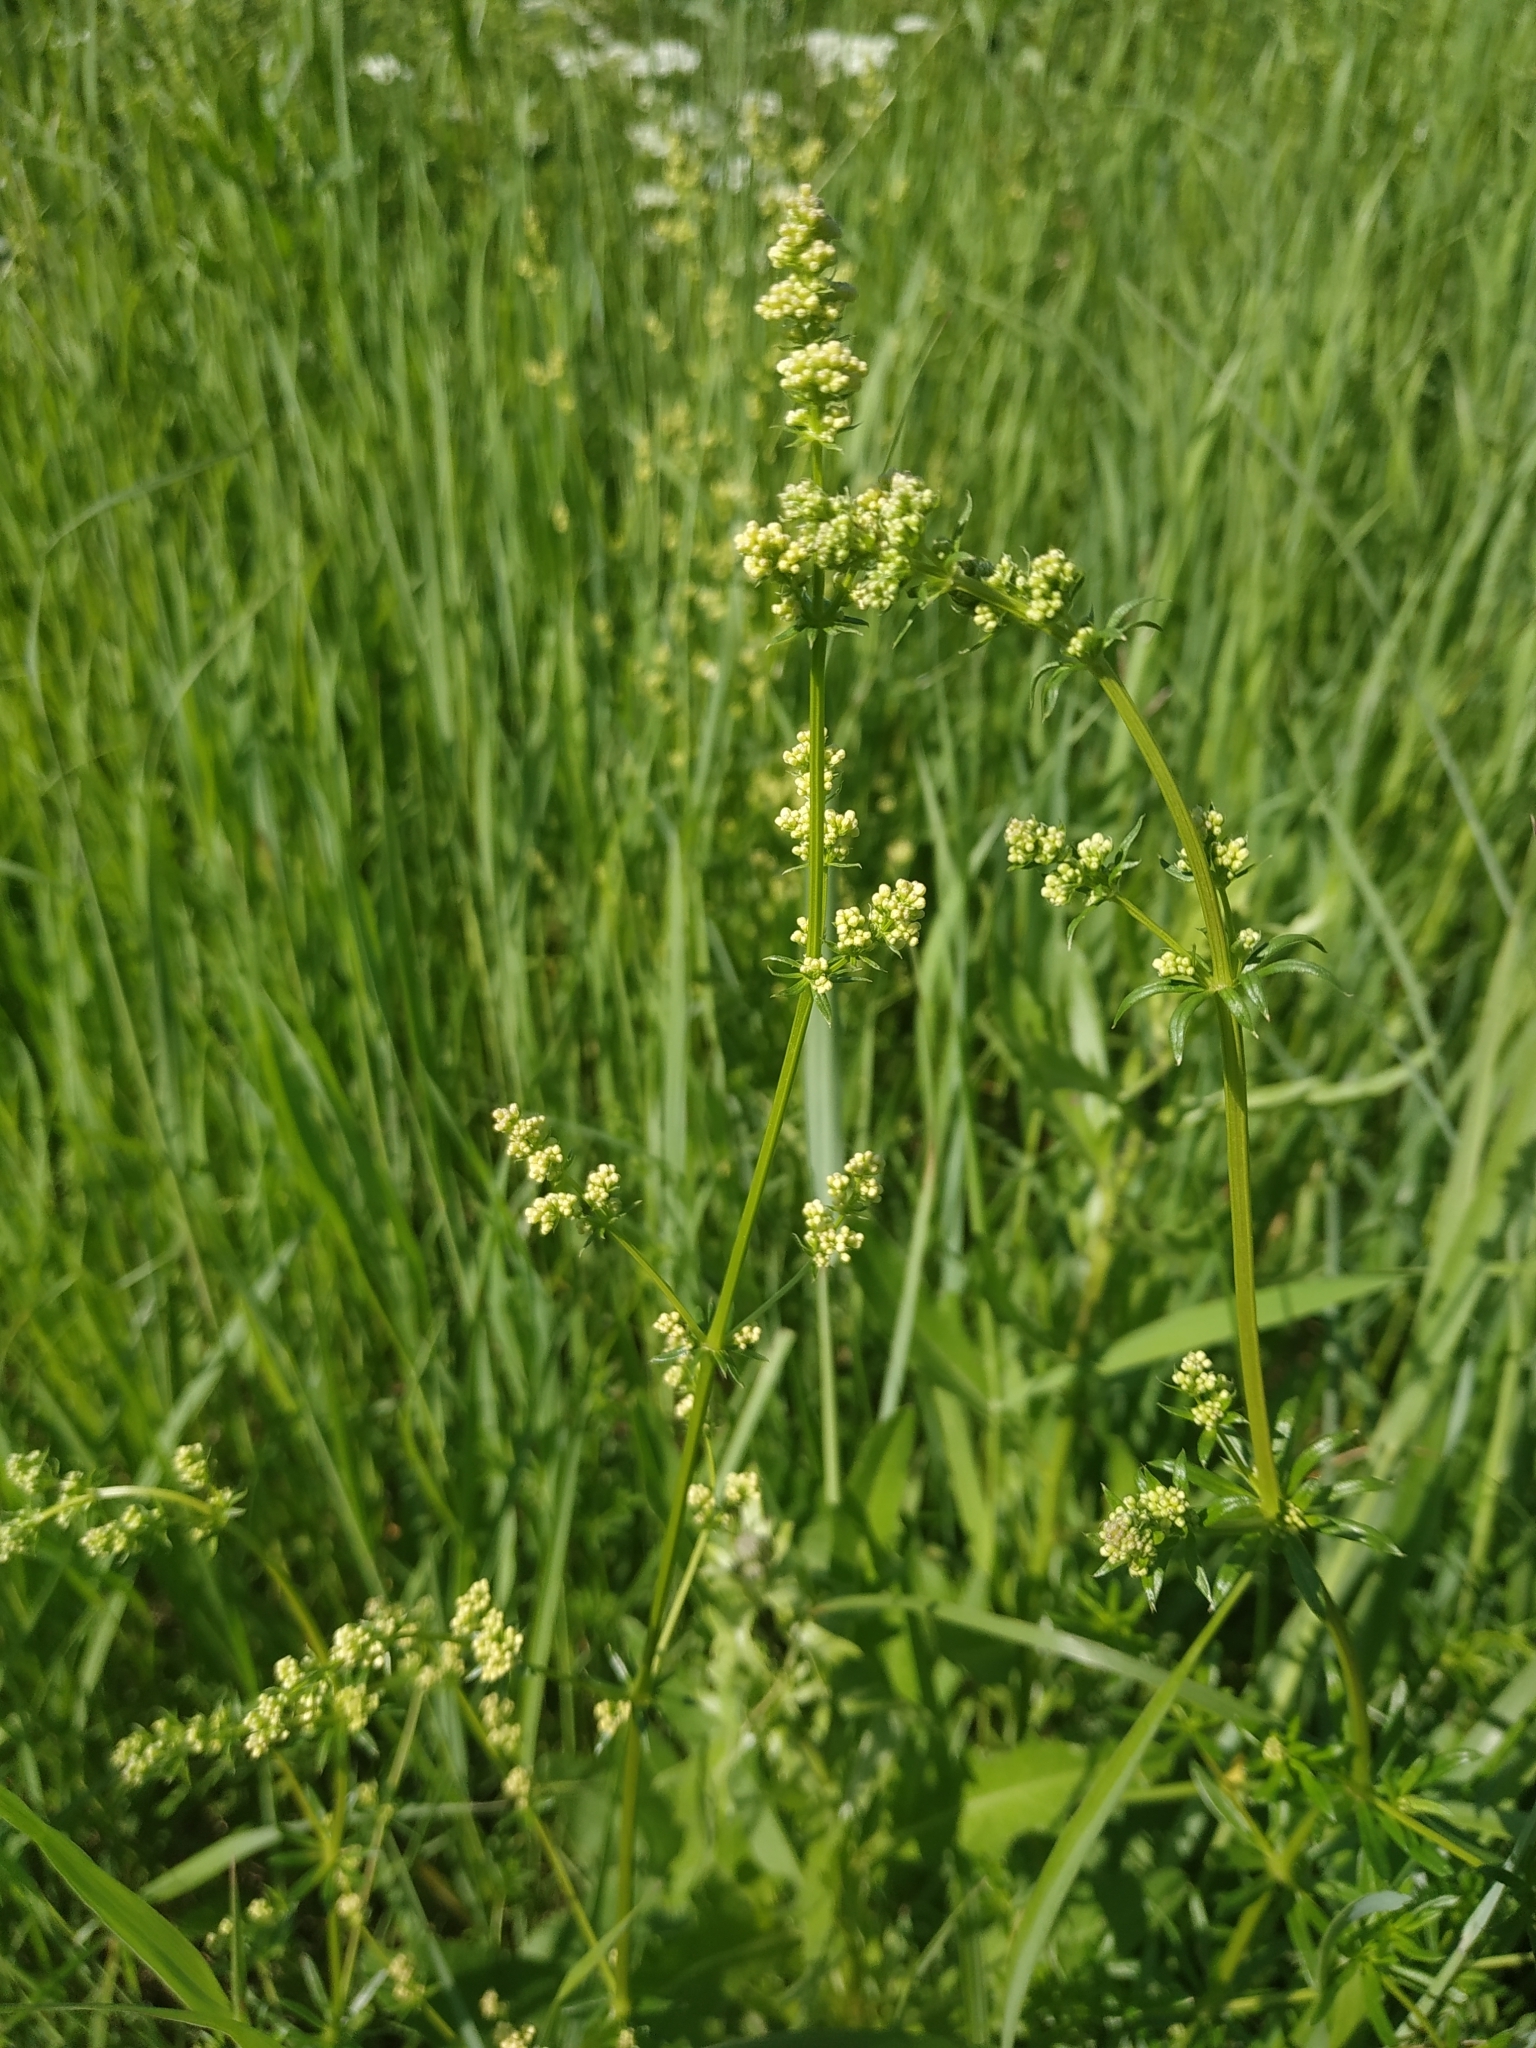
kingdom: Plantae
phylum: Tracheophyta
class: Magnoliopsida
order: Gentianales
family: Rubiaceae
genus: Galium
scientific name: Galium mollugo
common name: Hedge bedstraw
